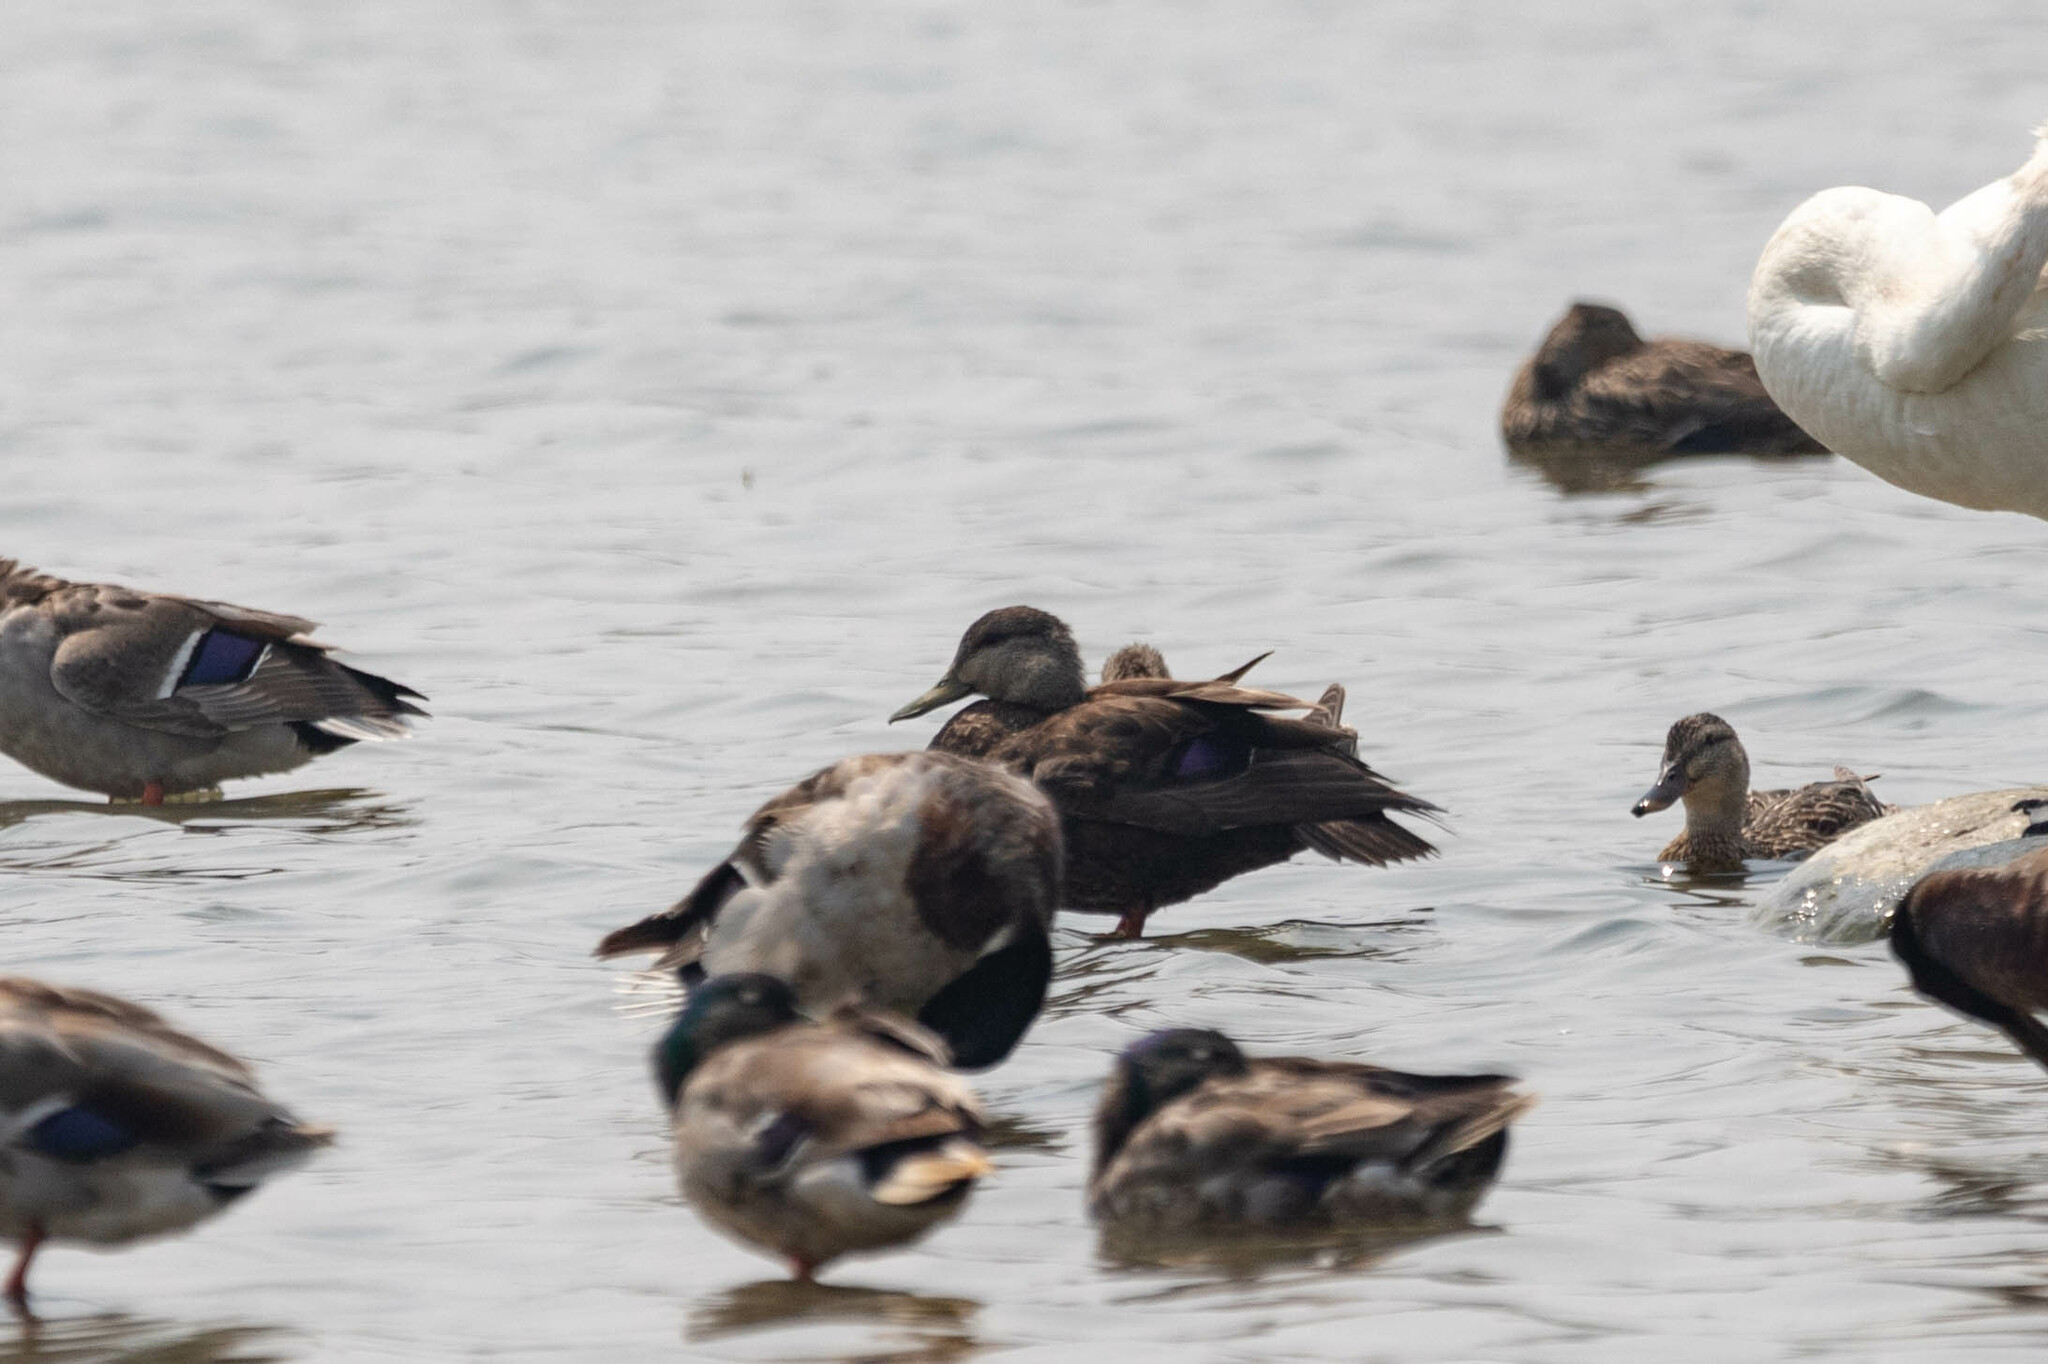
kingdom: Animalia
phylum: Chordata
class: Aves
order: Anseriformes
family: Anatidae
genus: Anas
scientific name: Anas rubripes
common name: American black duck
